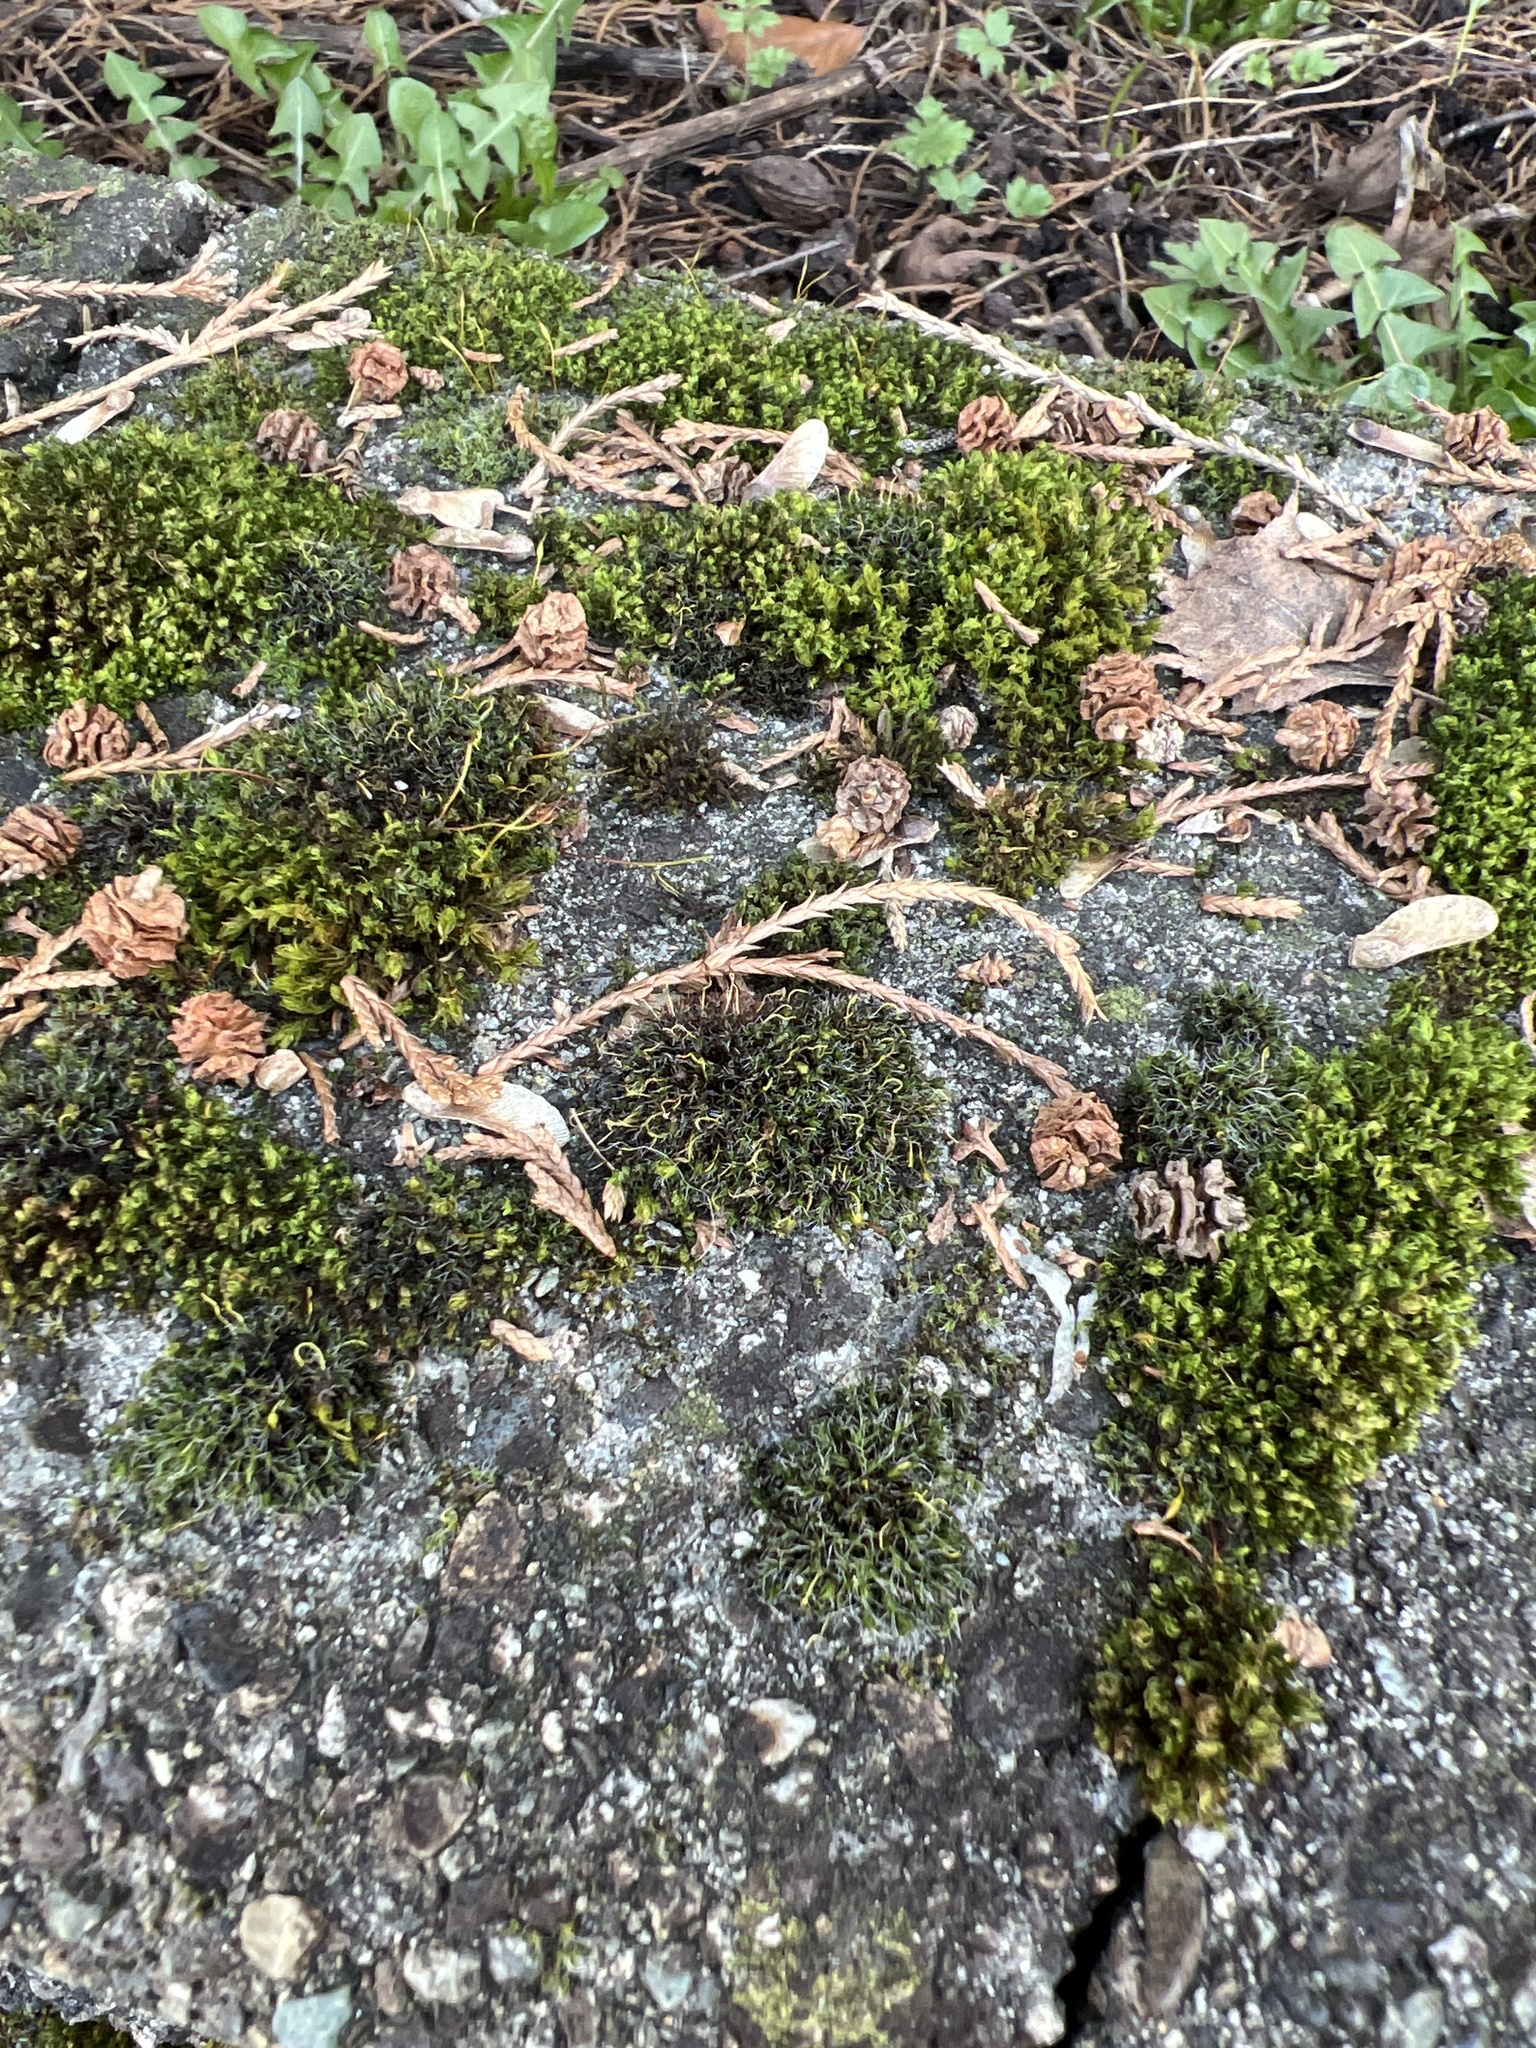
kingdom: Plantae
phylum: Bryophyta
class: Bryopsida
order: Grimmiales
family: Grimmiaceae
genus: Grimmia
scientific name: Grimmia pulvinata
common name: Grey-cushioned grimmia
